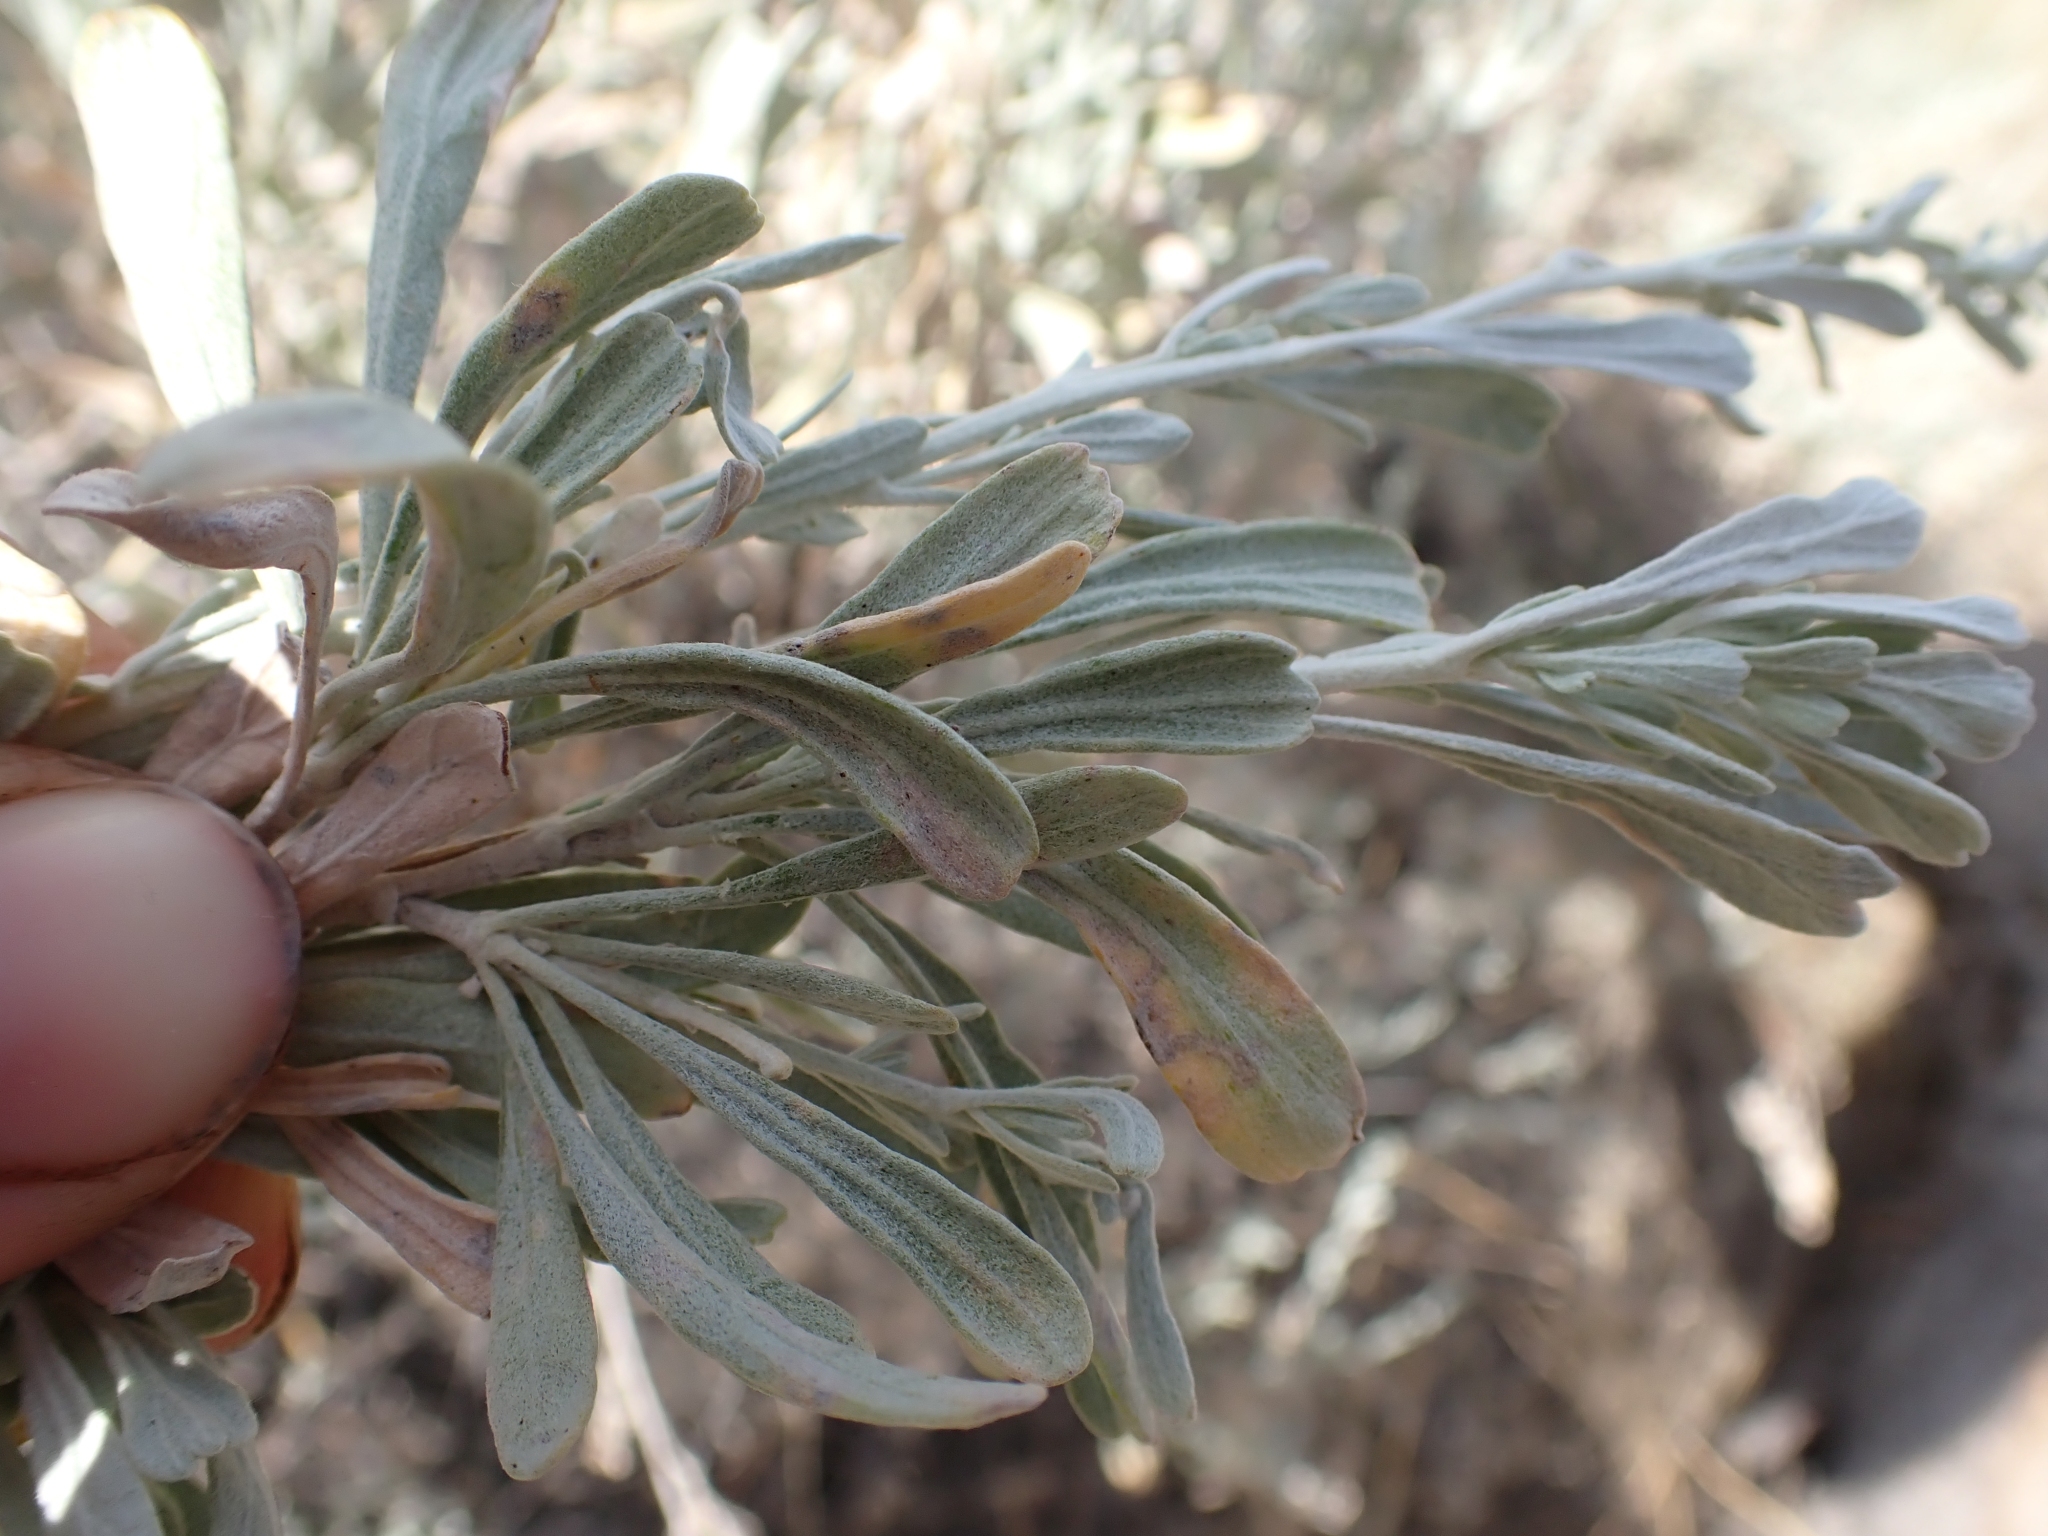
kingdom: Plantae
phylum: Tracheophyta
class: Magnoliopsida
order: Asterales
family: Asteraceae
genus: Artemisia
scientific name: Artemisia tridentata
